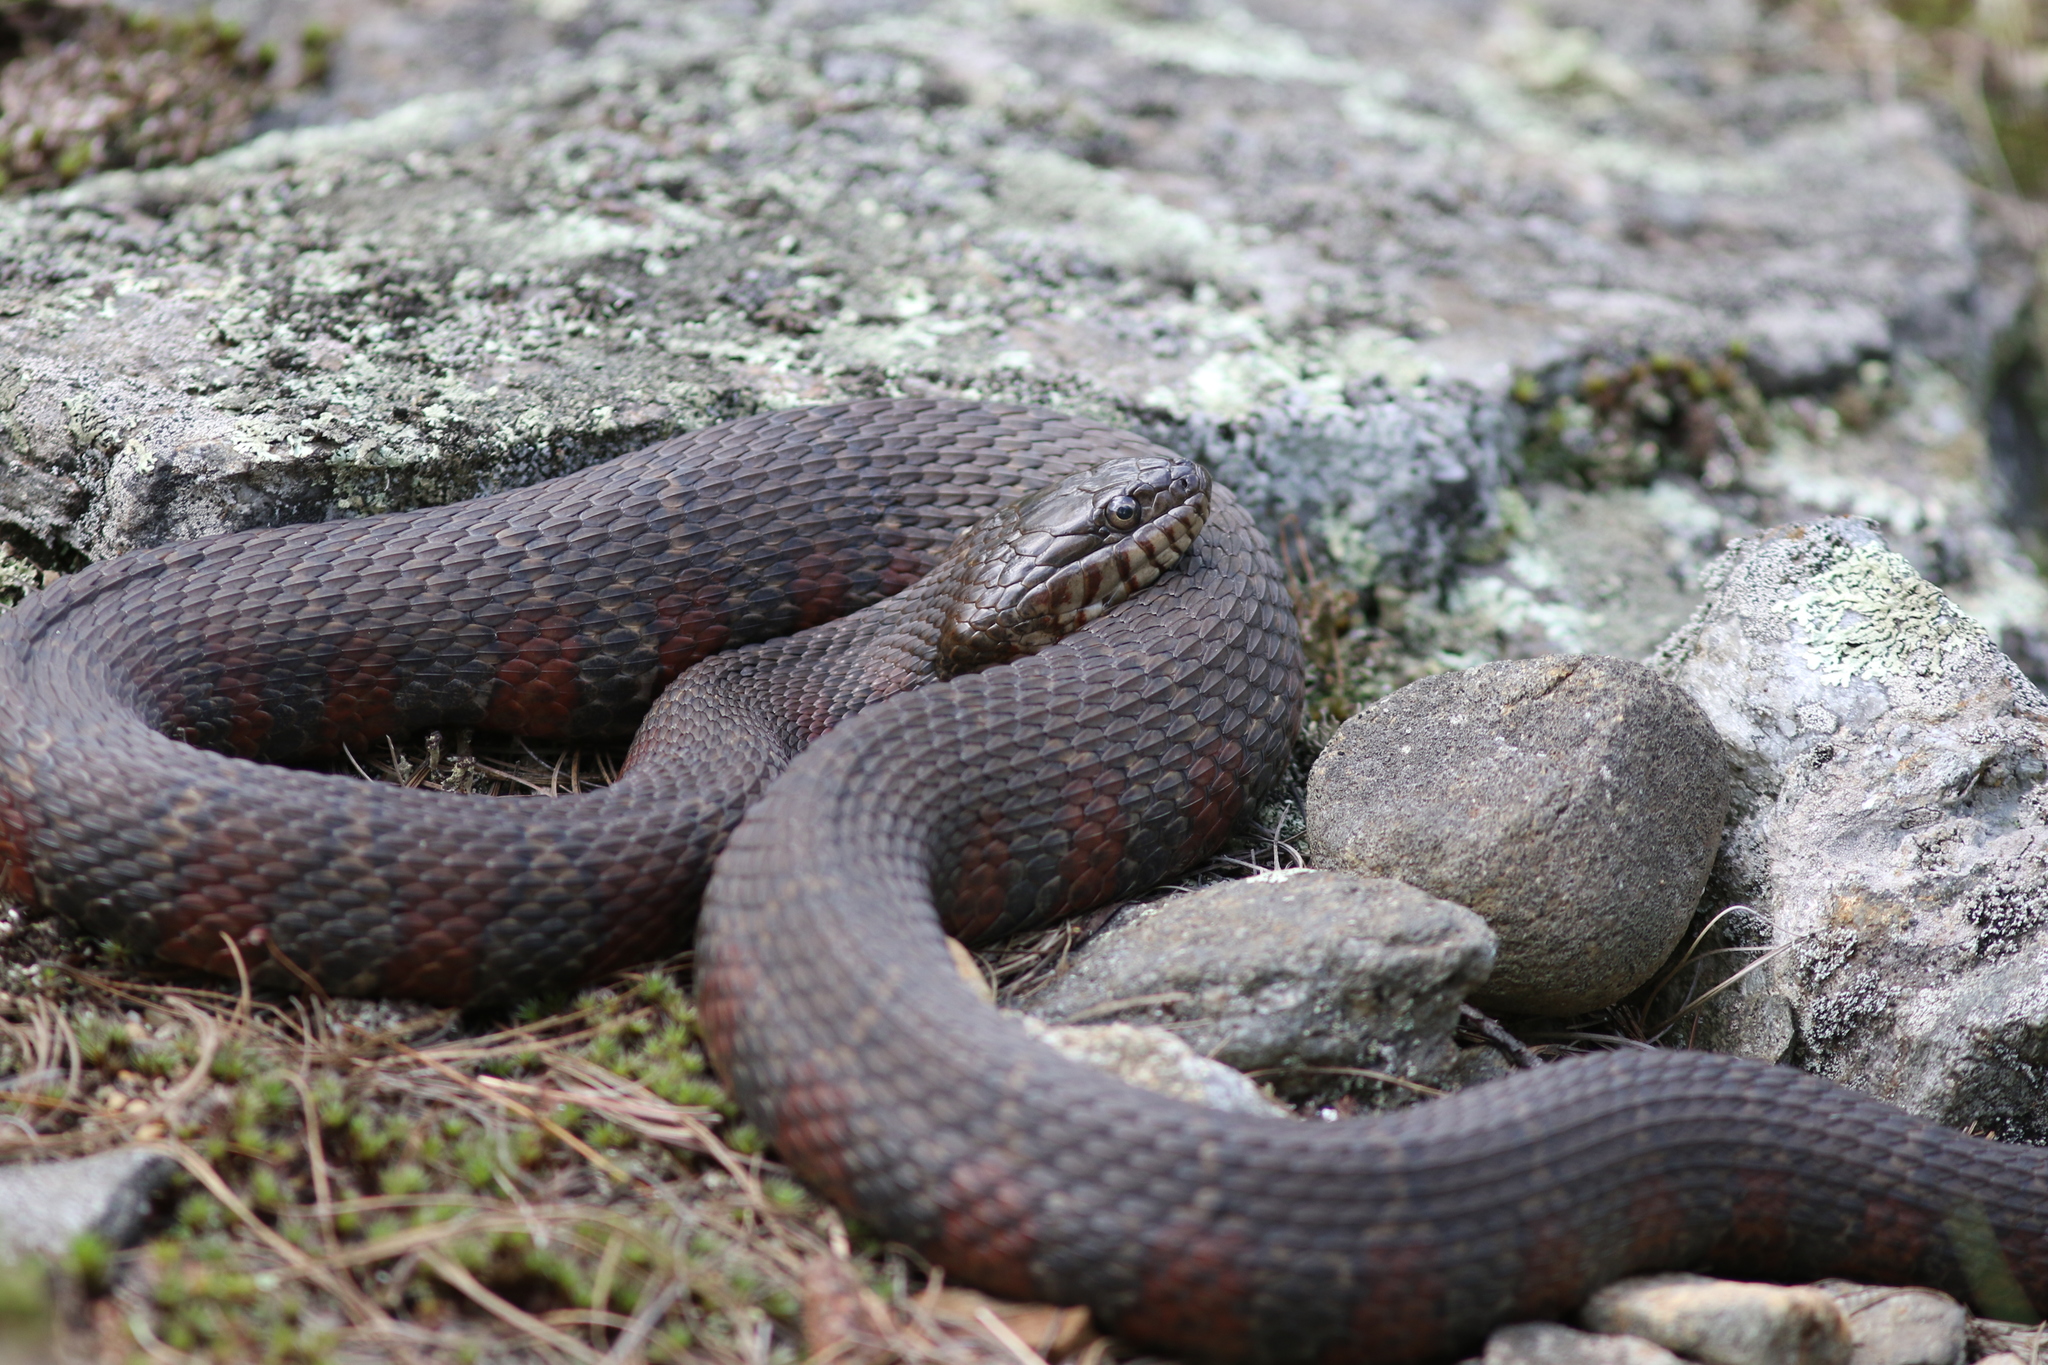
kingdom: Animalia
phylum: Chordata
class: Squamata
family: Colubridae
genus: Nerodia
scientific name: Nerodia sipedon
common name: Northern water snake
